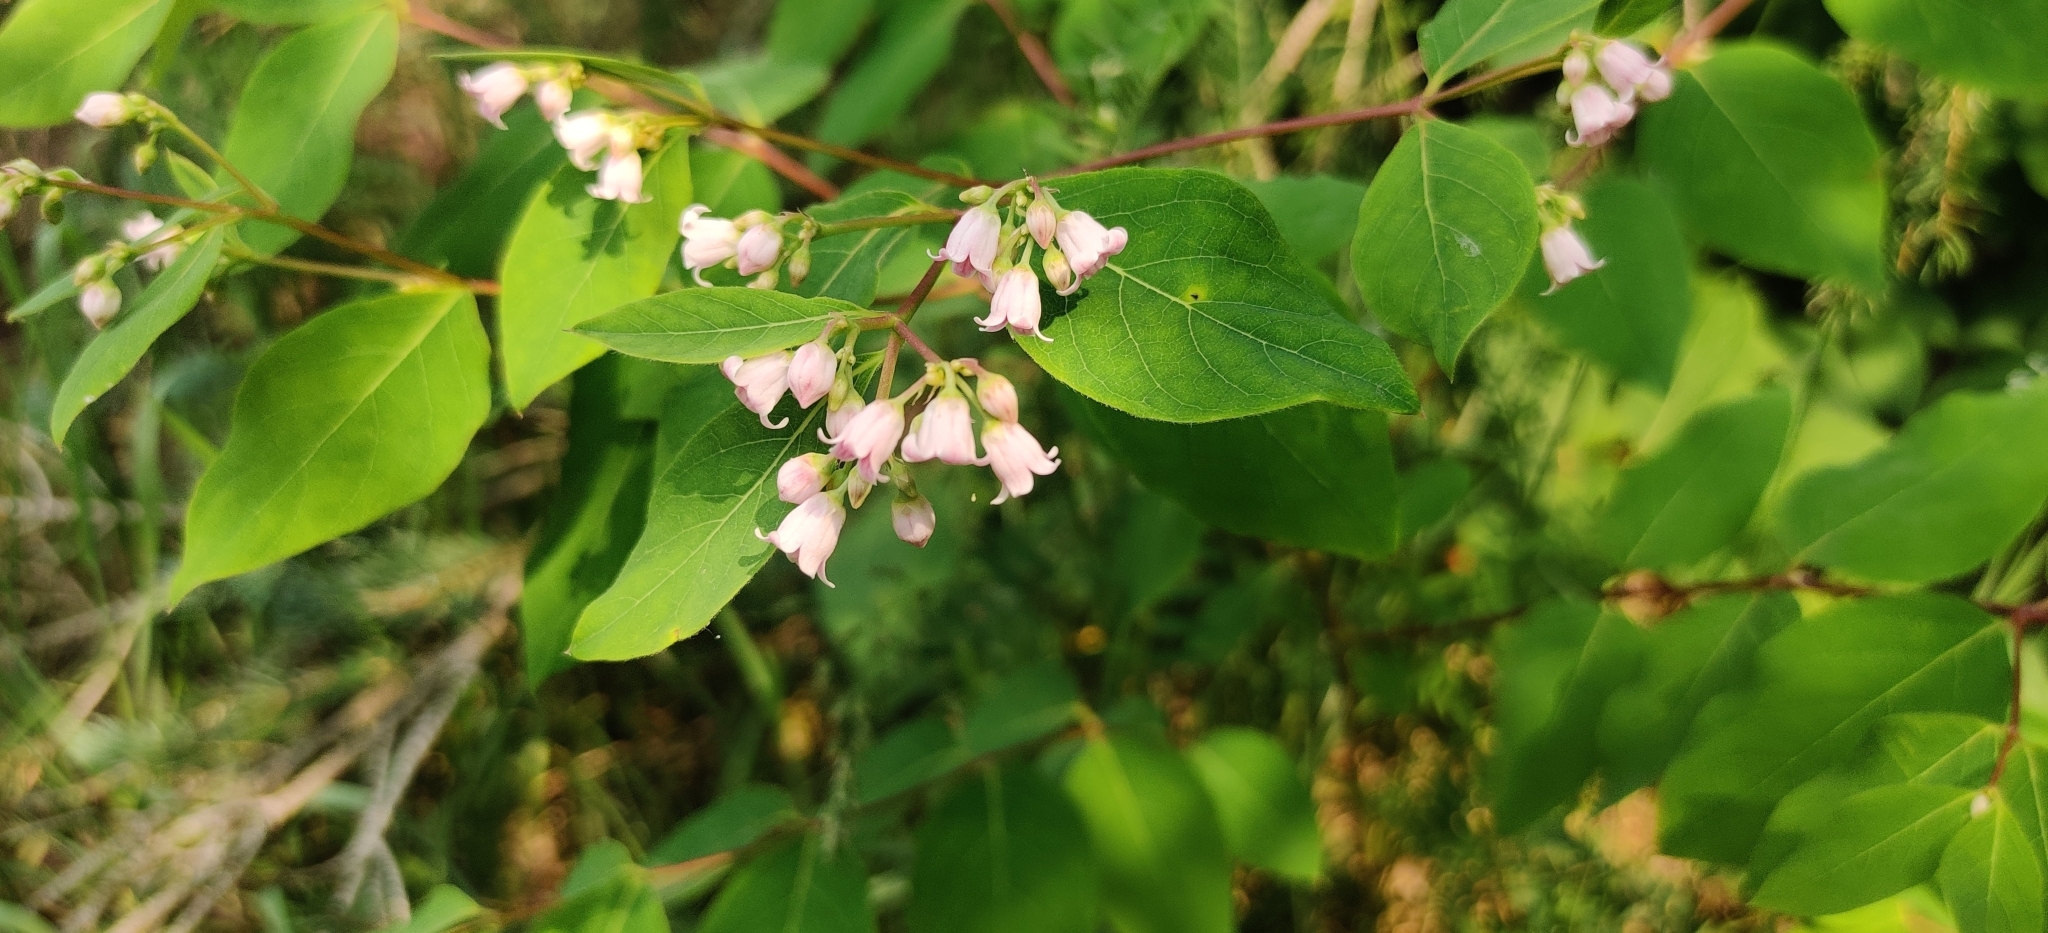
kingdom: Plantae
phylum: Tracheophyta
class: Magnoliopsida
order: Gentianales
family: Apocynaceae
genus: Apocynum
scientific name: Apocynum androsaemifolium
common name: Spreading dogbane
